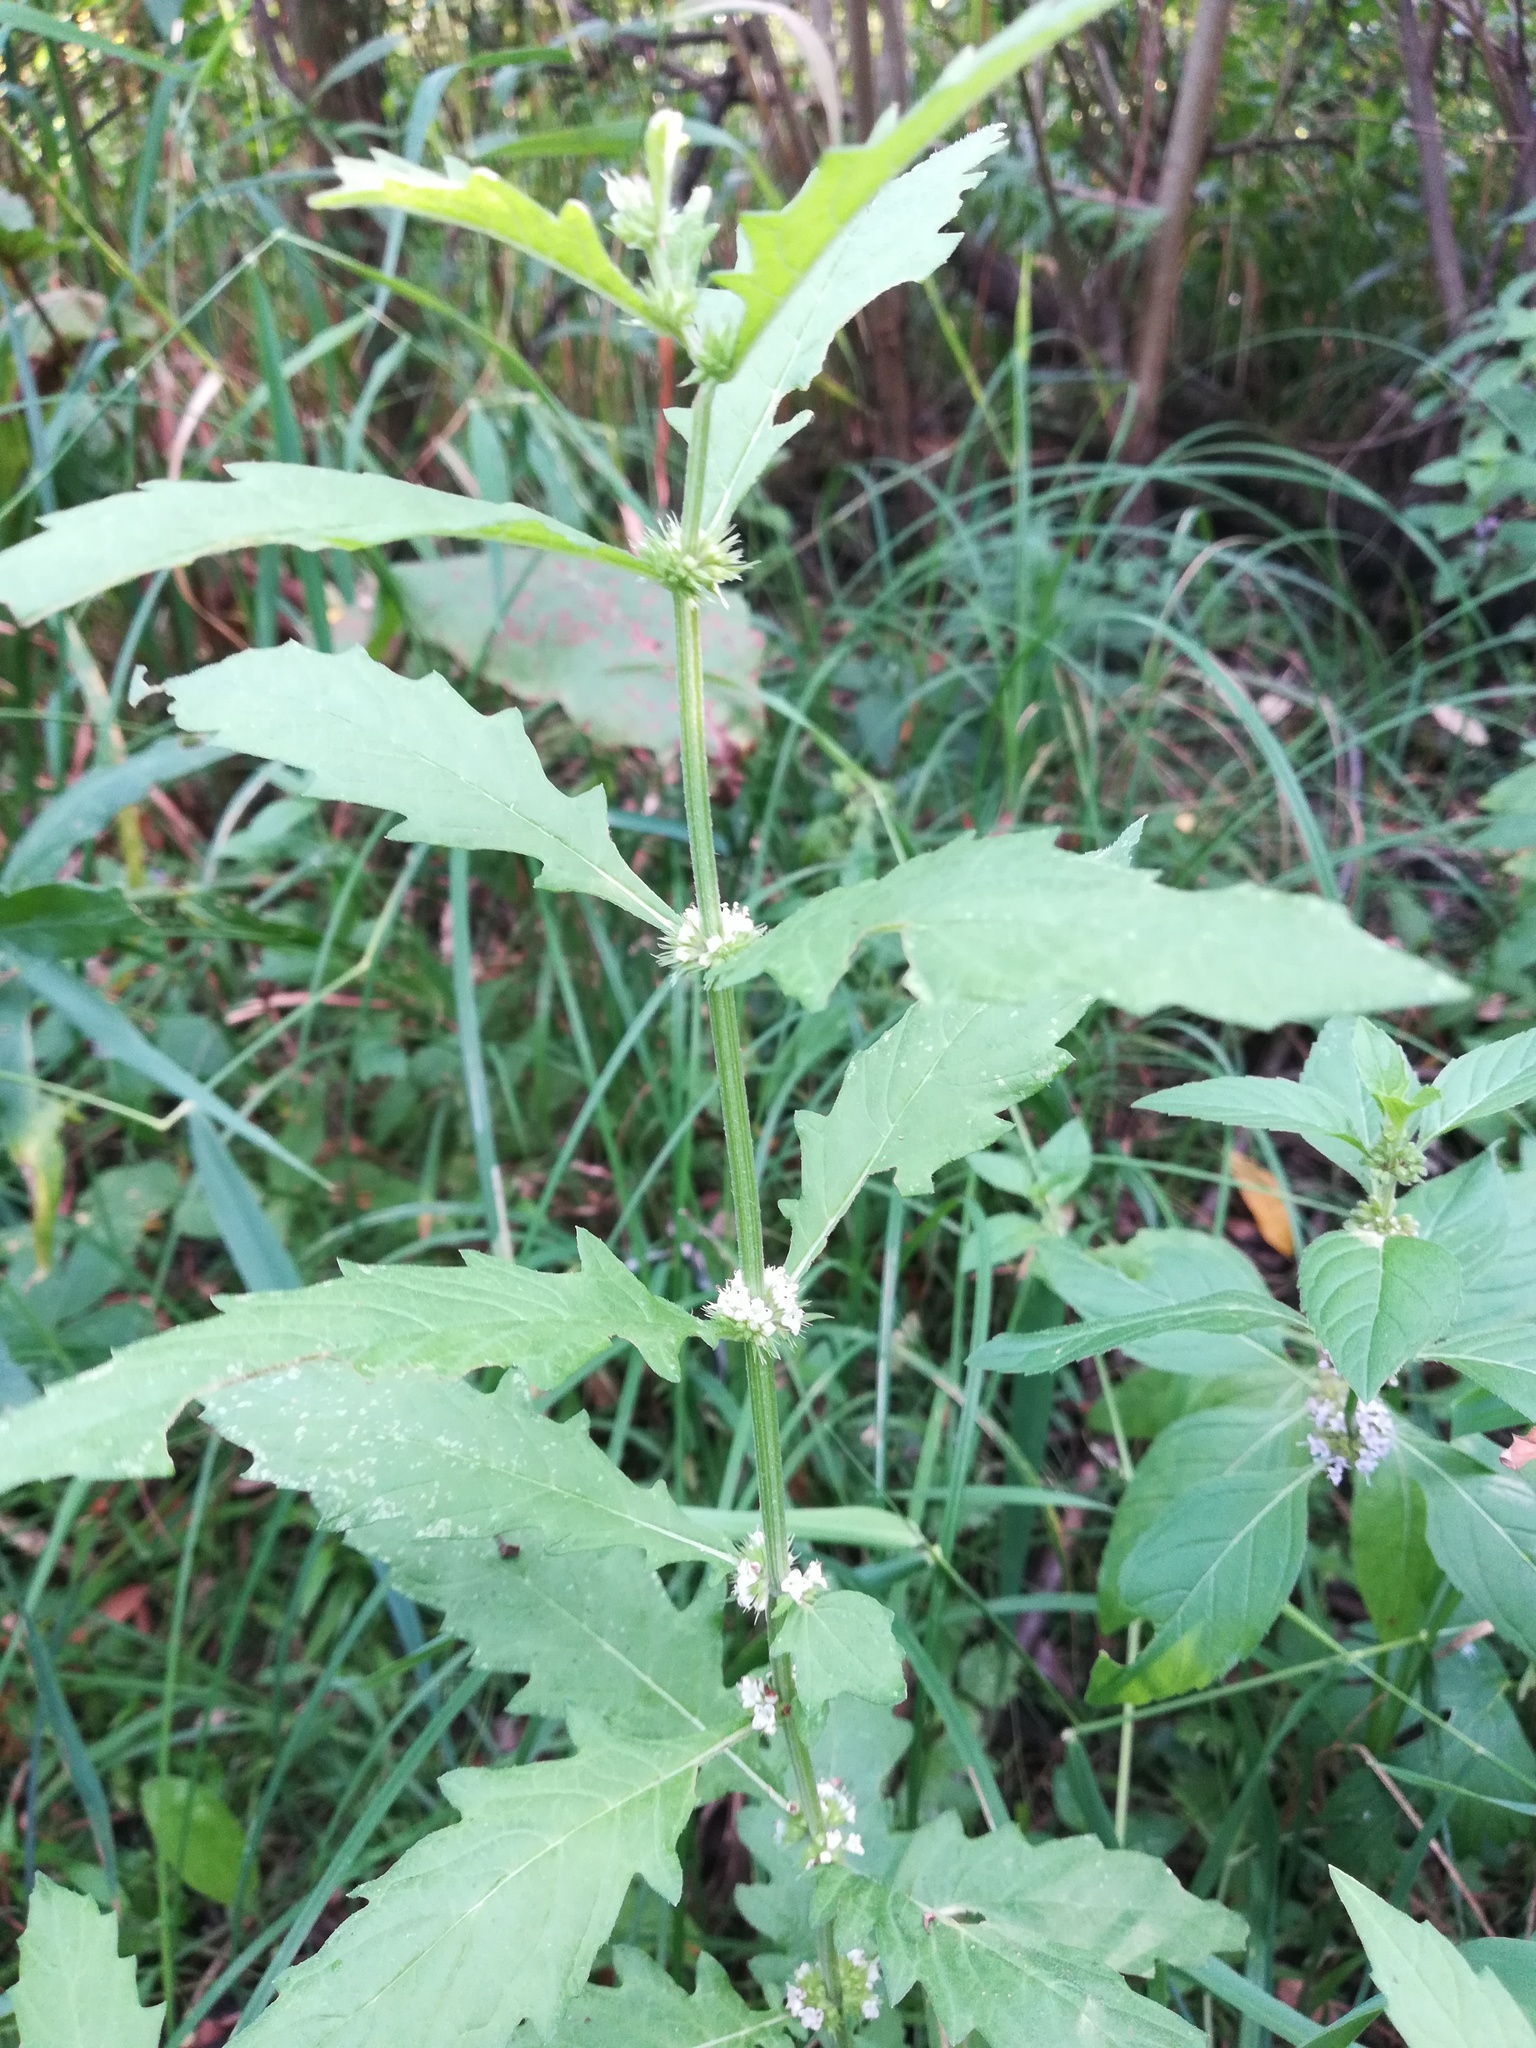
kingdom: Plantae
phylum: Tracheophyta
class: Magnoliopsida
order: Lamiales
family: Lamiaceae
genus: Lycopus
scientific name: Lycopus europaeus
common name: European bugleweed
